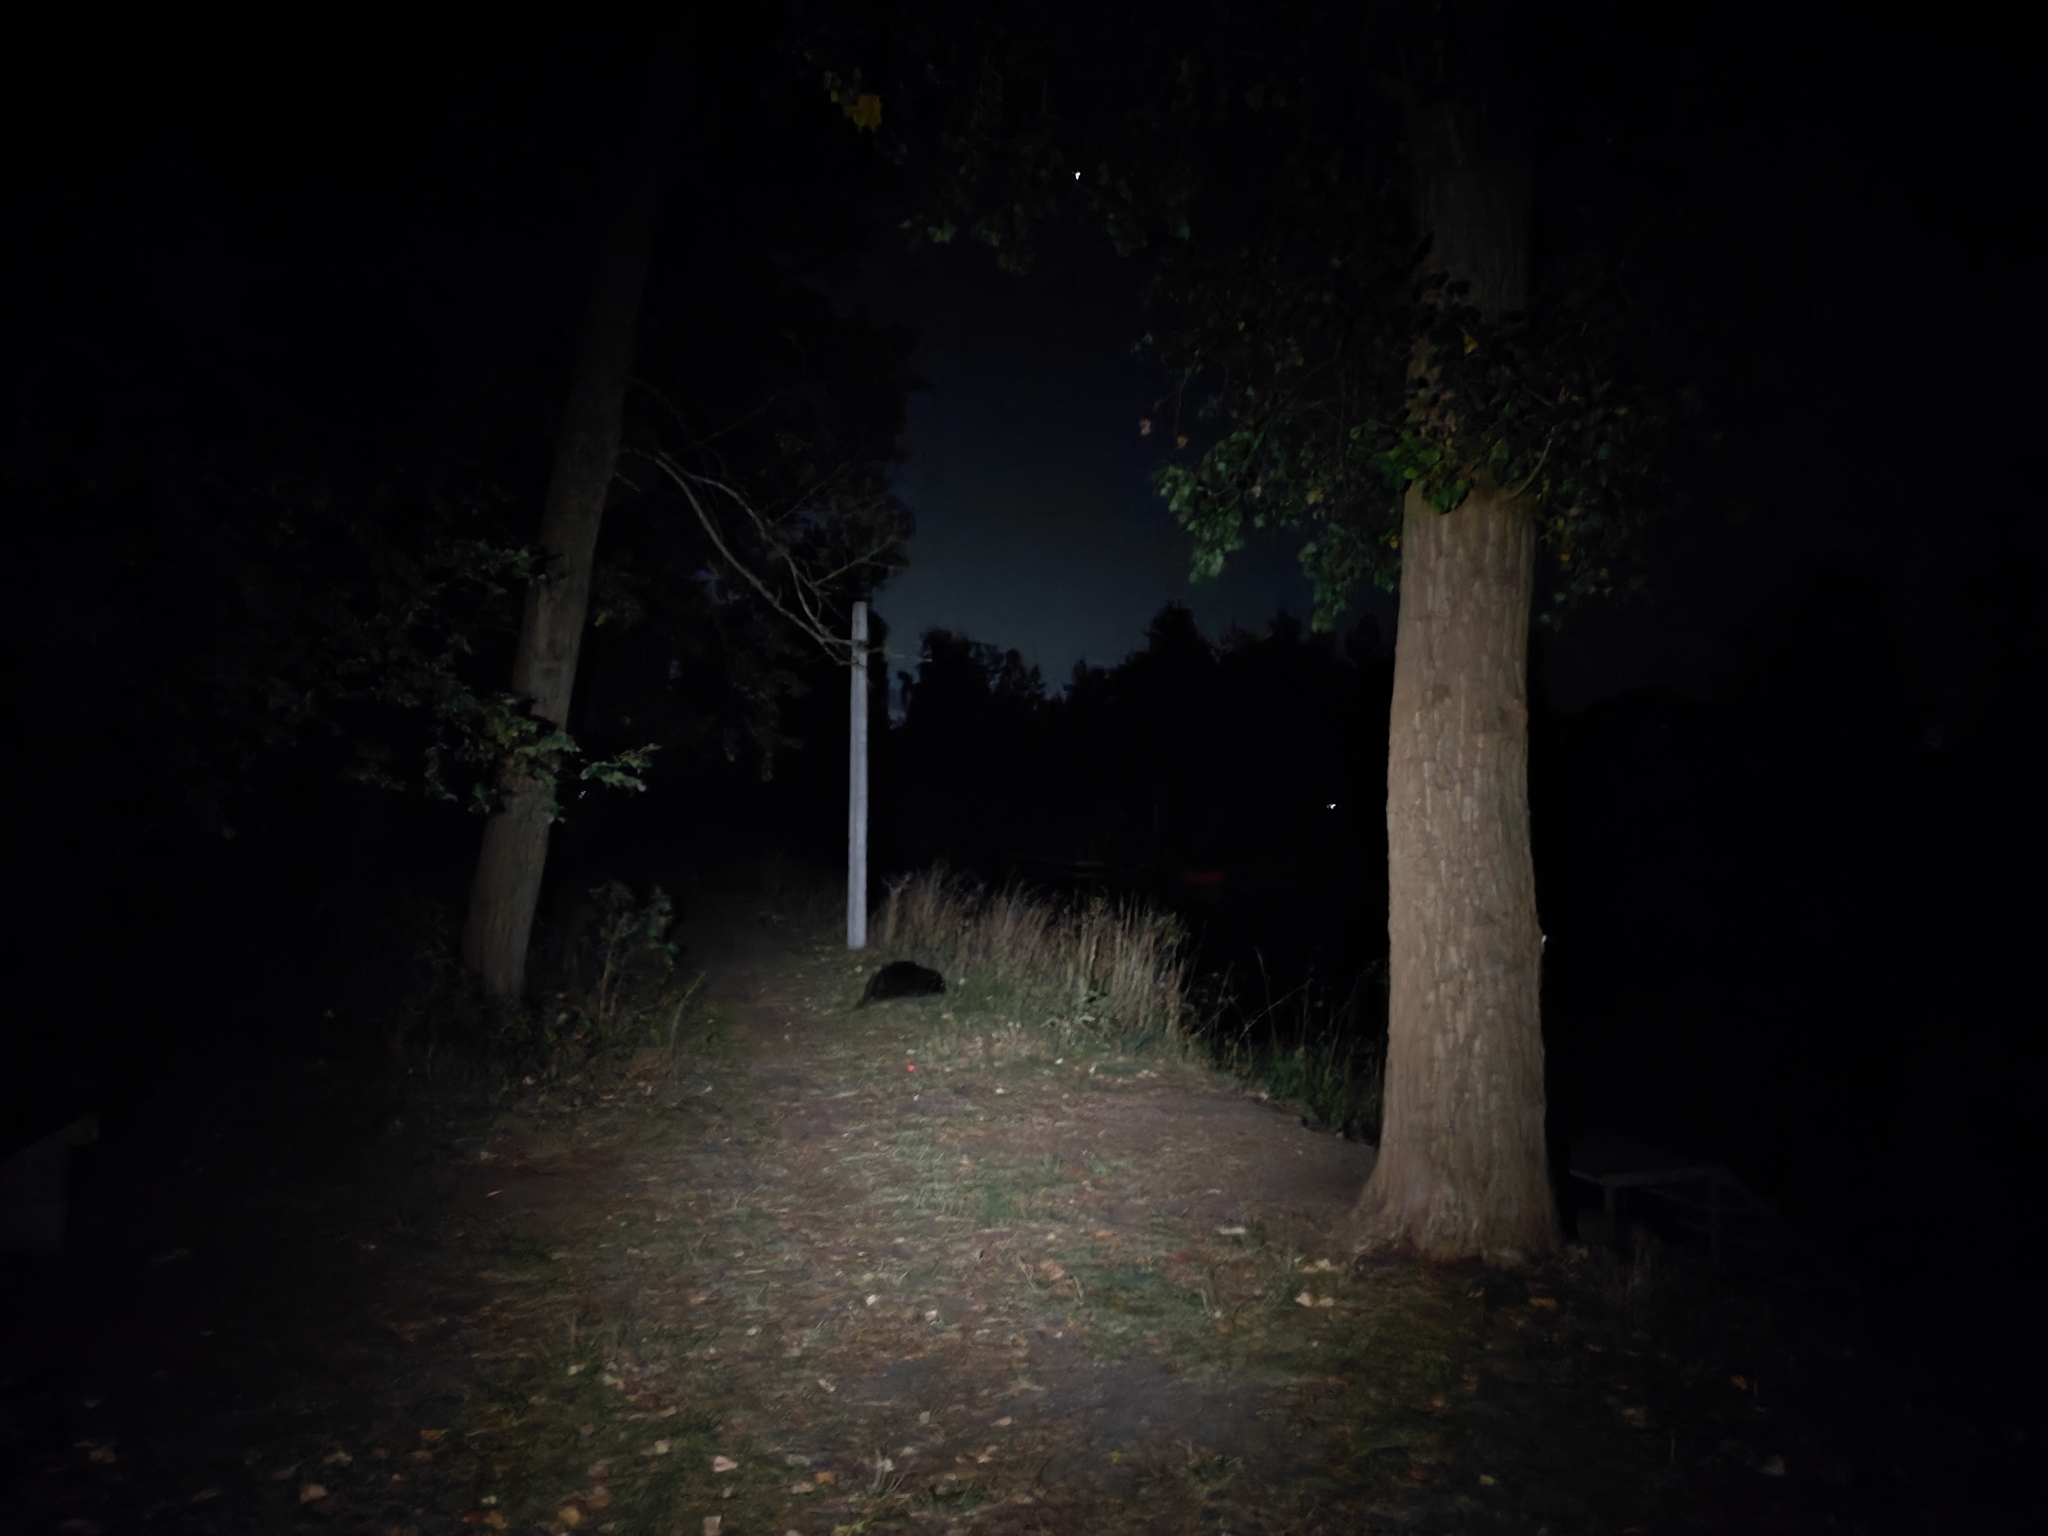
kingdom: Animalia
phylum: Chordata
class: Mammalia
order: Rodentia
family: Castoridae
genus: Castor
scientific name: Castor fiber
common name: Eurasian beaver
